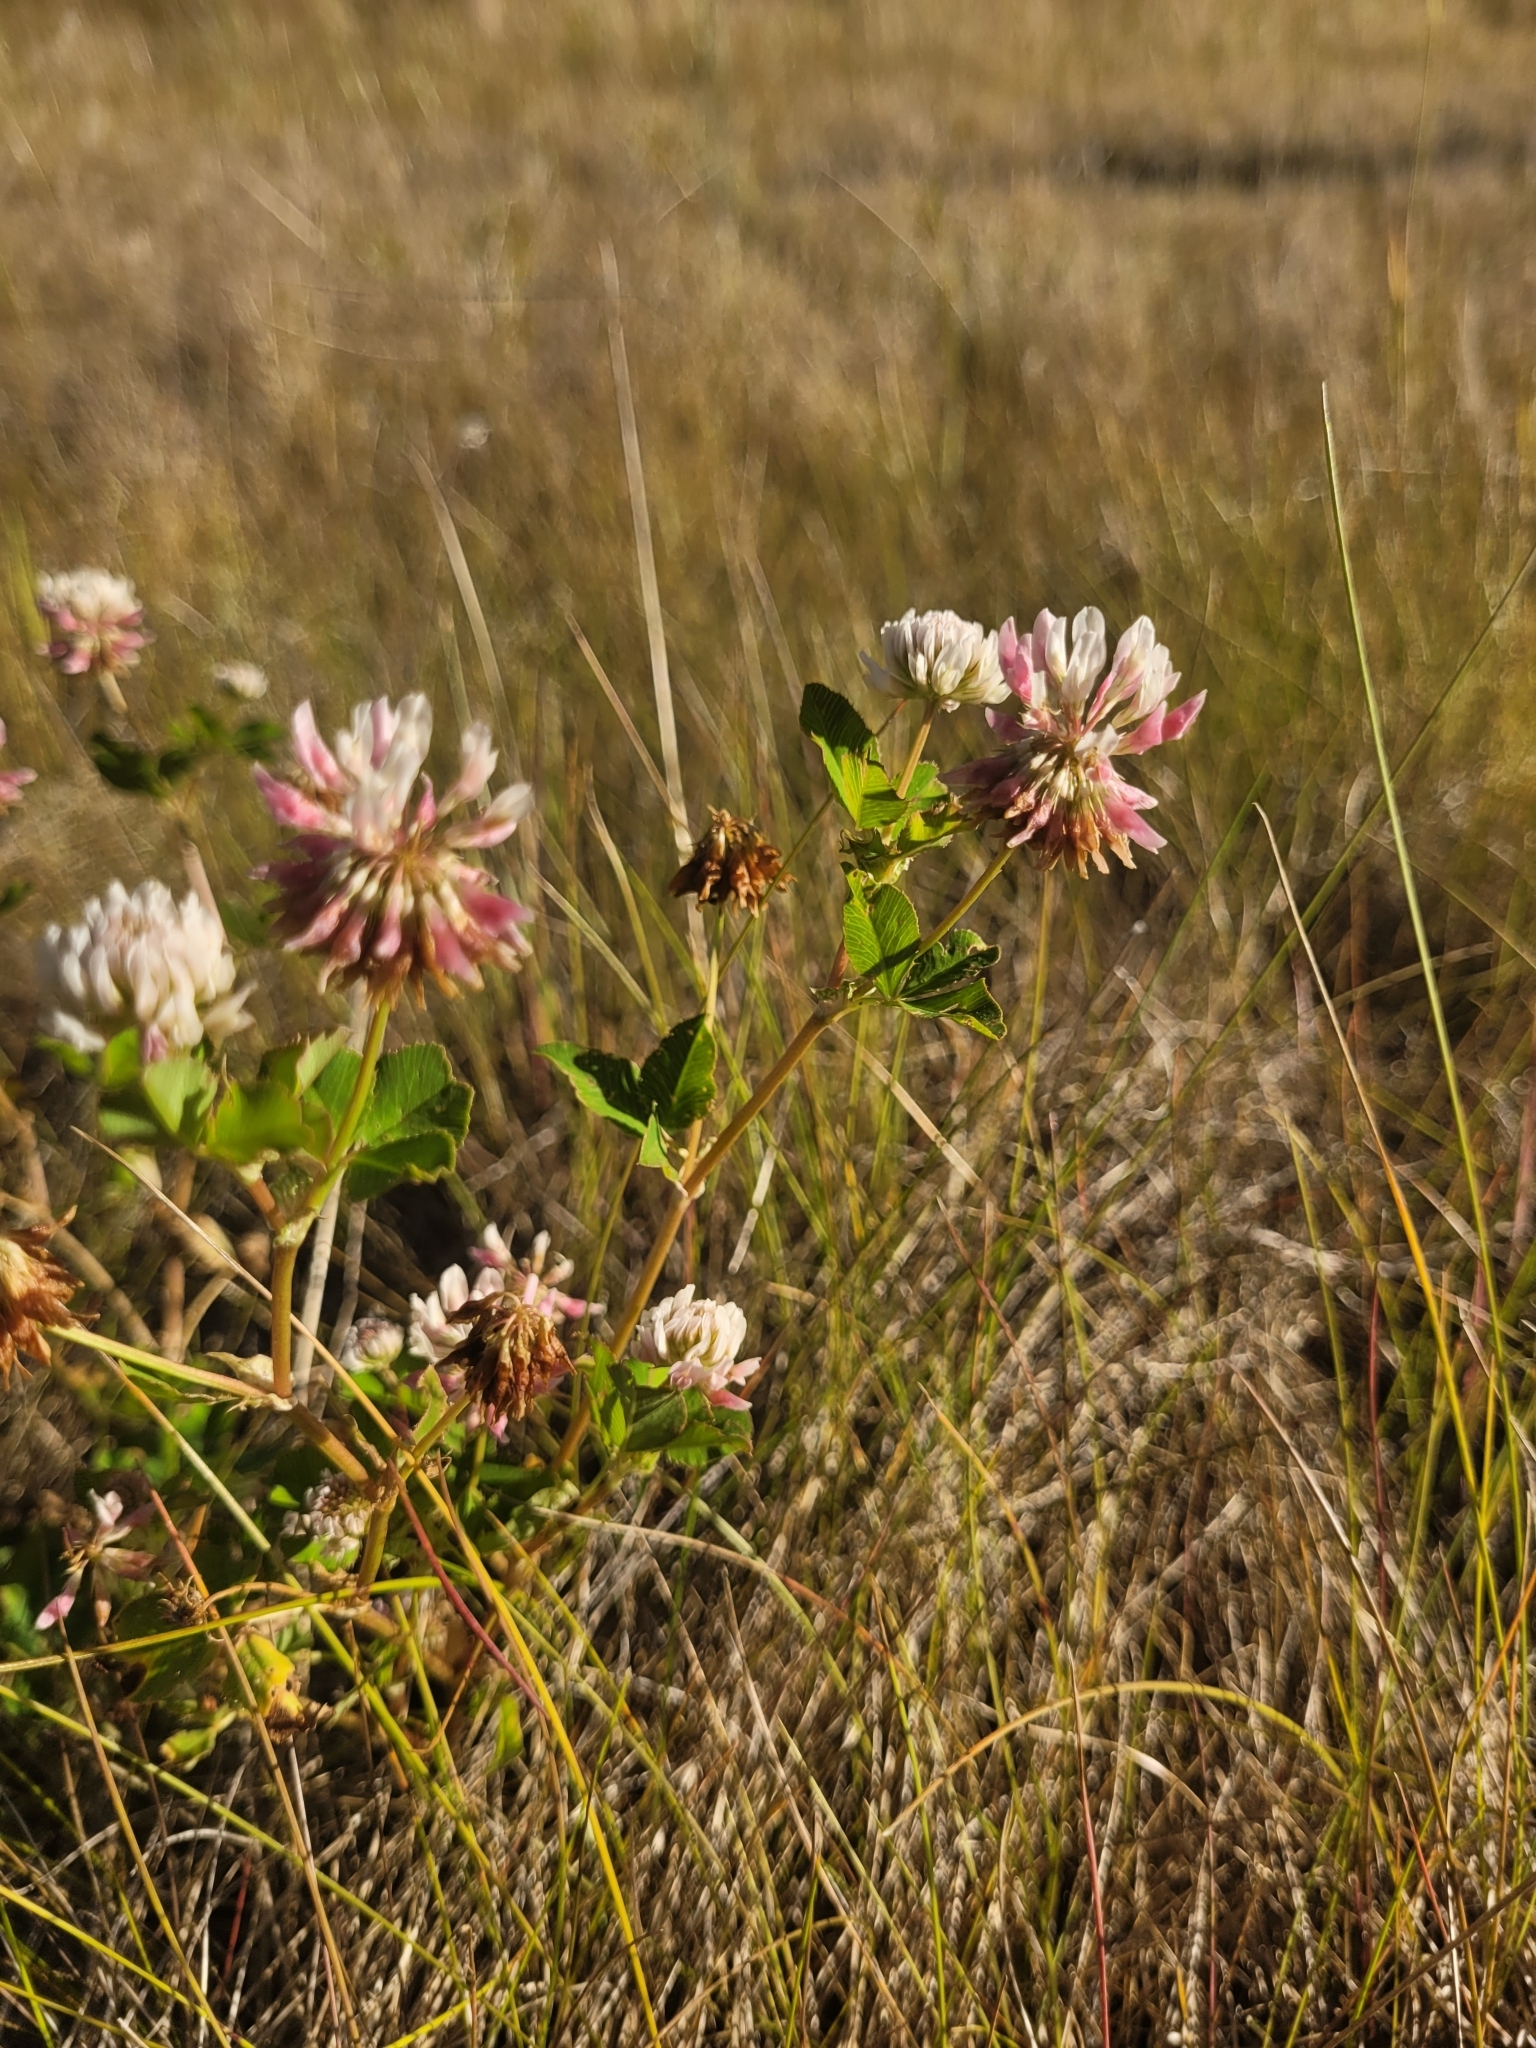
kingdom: Plantae
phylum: Tracheophyta
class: Magnoliopsida
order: Fabales
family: Fabaceae
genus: Trifolium
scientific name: Trifolium hybridum
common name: Alsike clover
